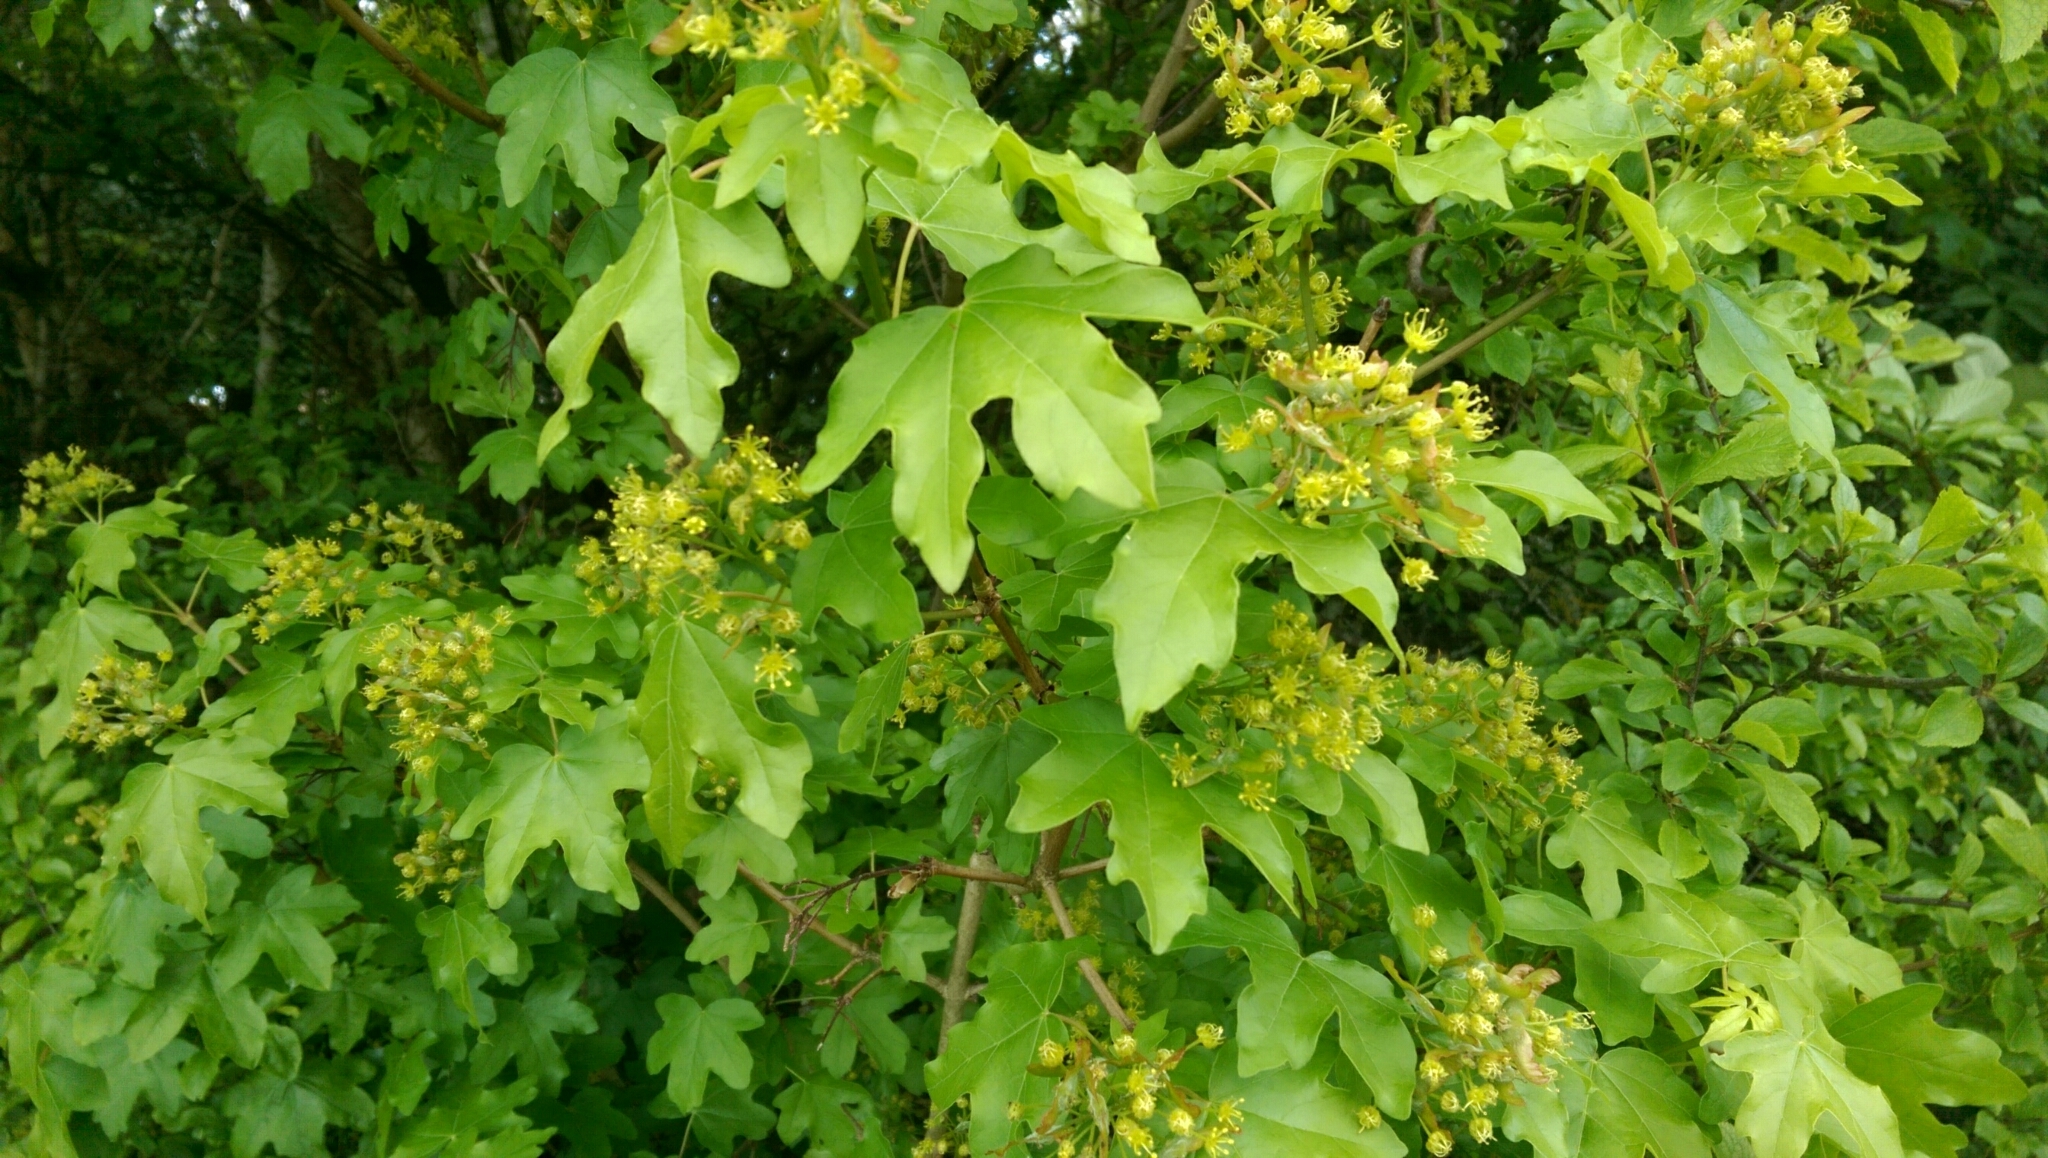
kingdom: Plantae
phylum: Tracheophyta
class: Magnoliopsida
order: Sapindales
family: Sapindaceae
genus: Acer
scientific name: Acer campestre
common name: Field maple
